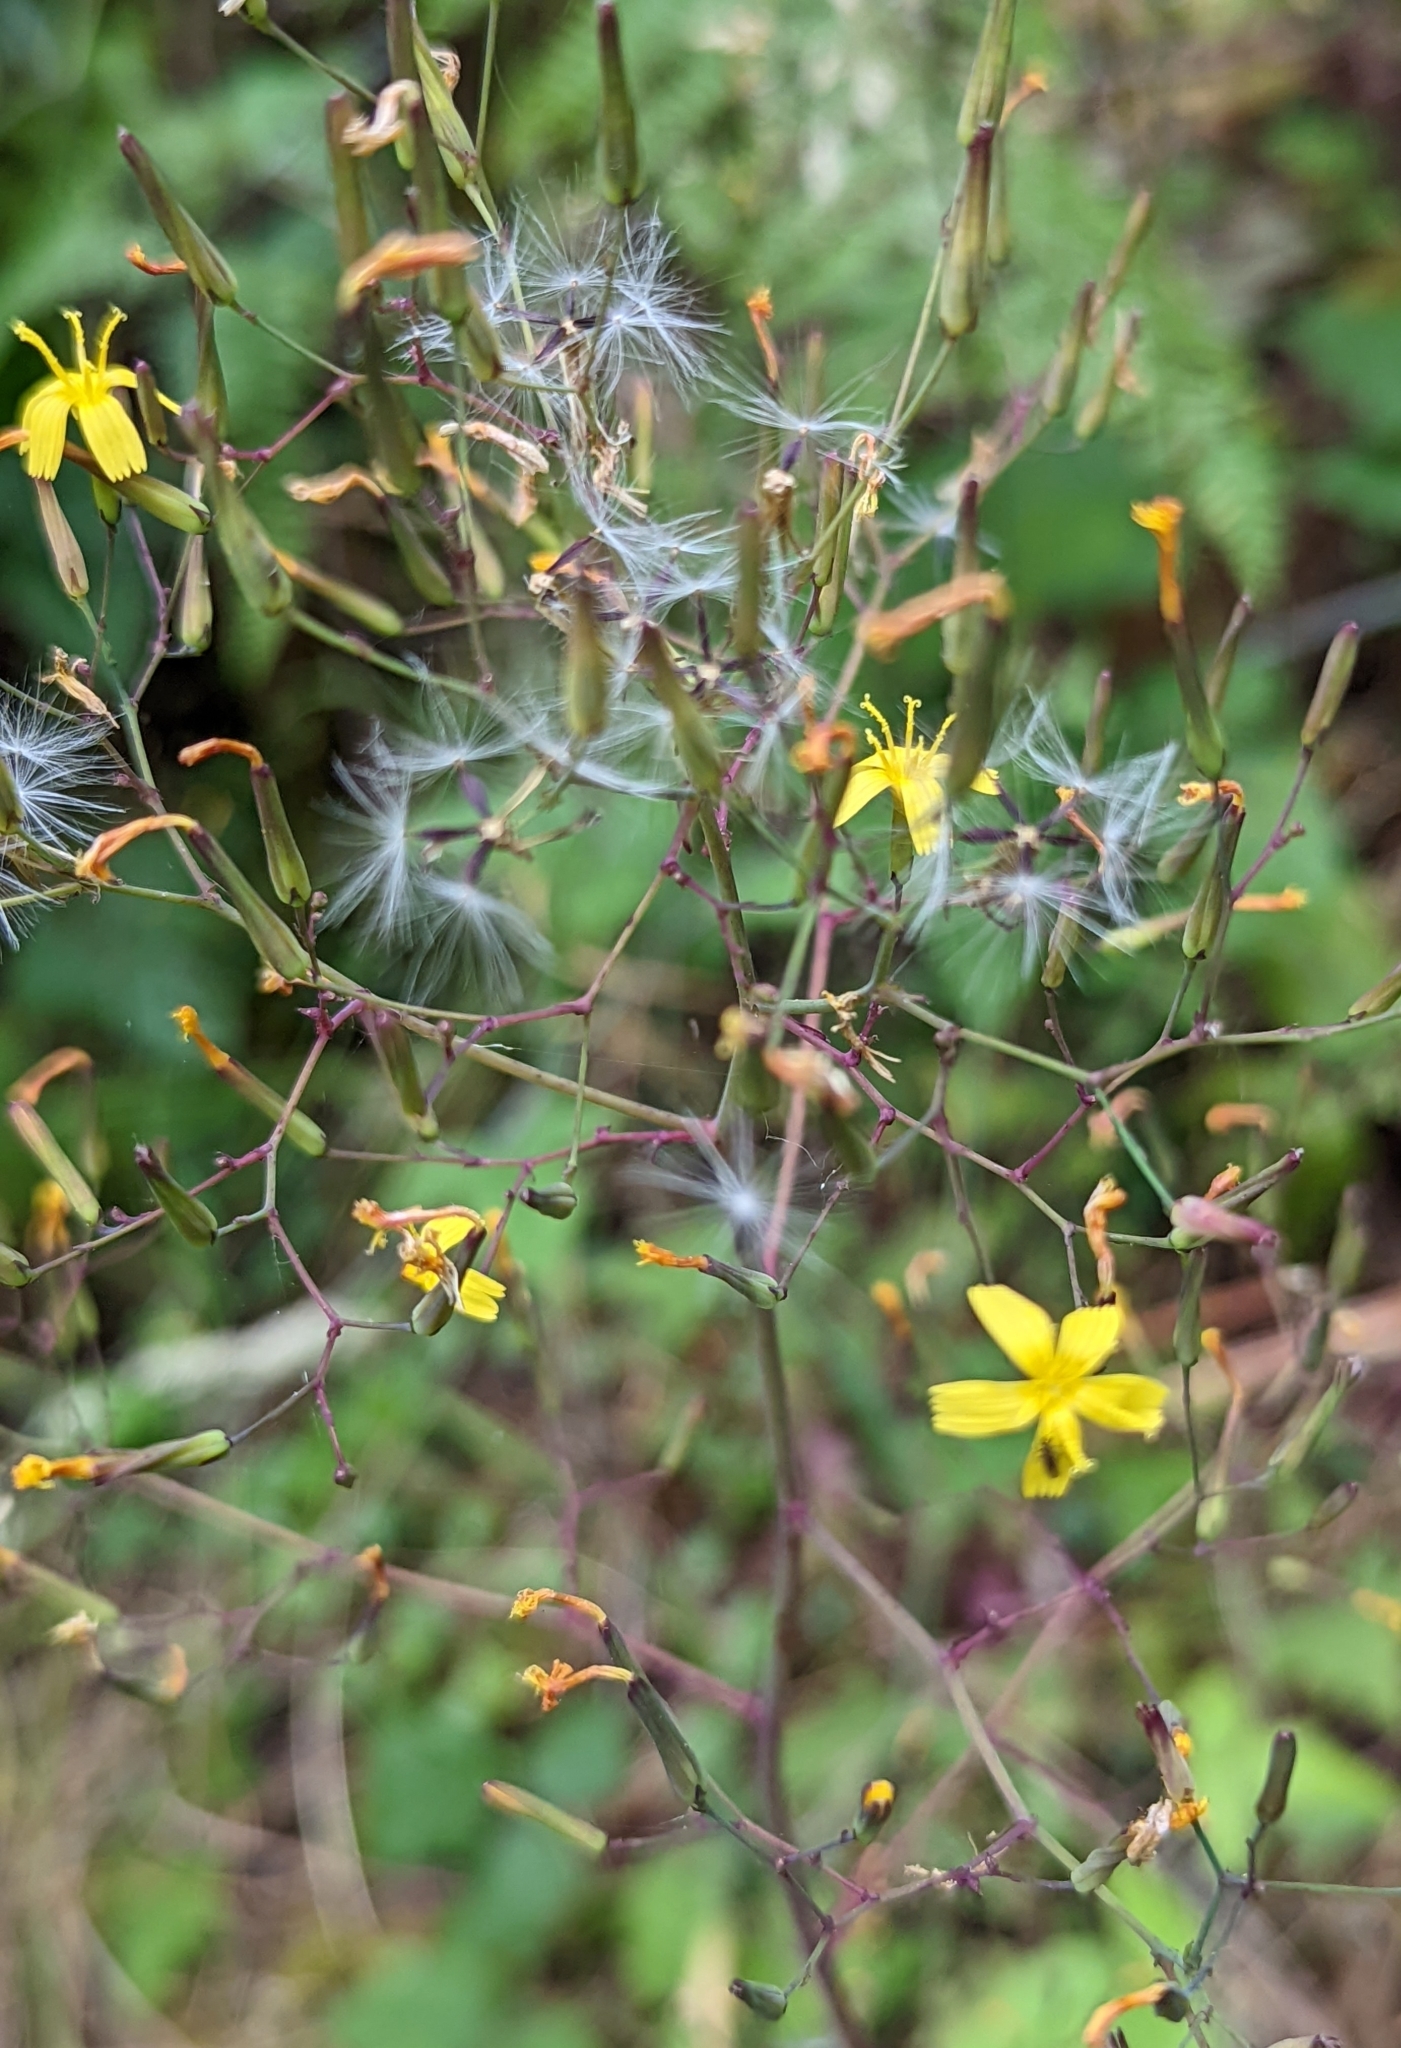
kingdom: Plantae
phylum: Tracheophyta
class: Magnoliopsida
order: Asterales
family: Asteraceae
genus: Mycelis
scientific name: Mycelis muralis
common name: Wall lettuce
